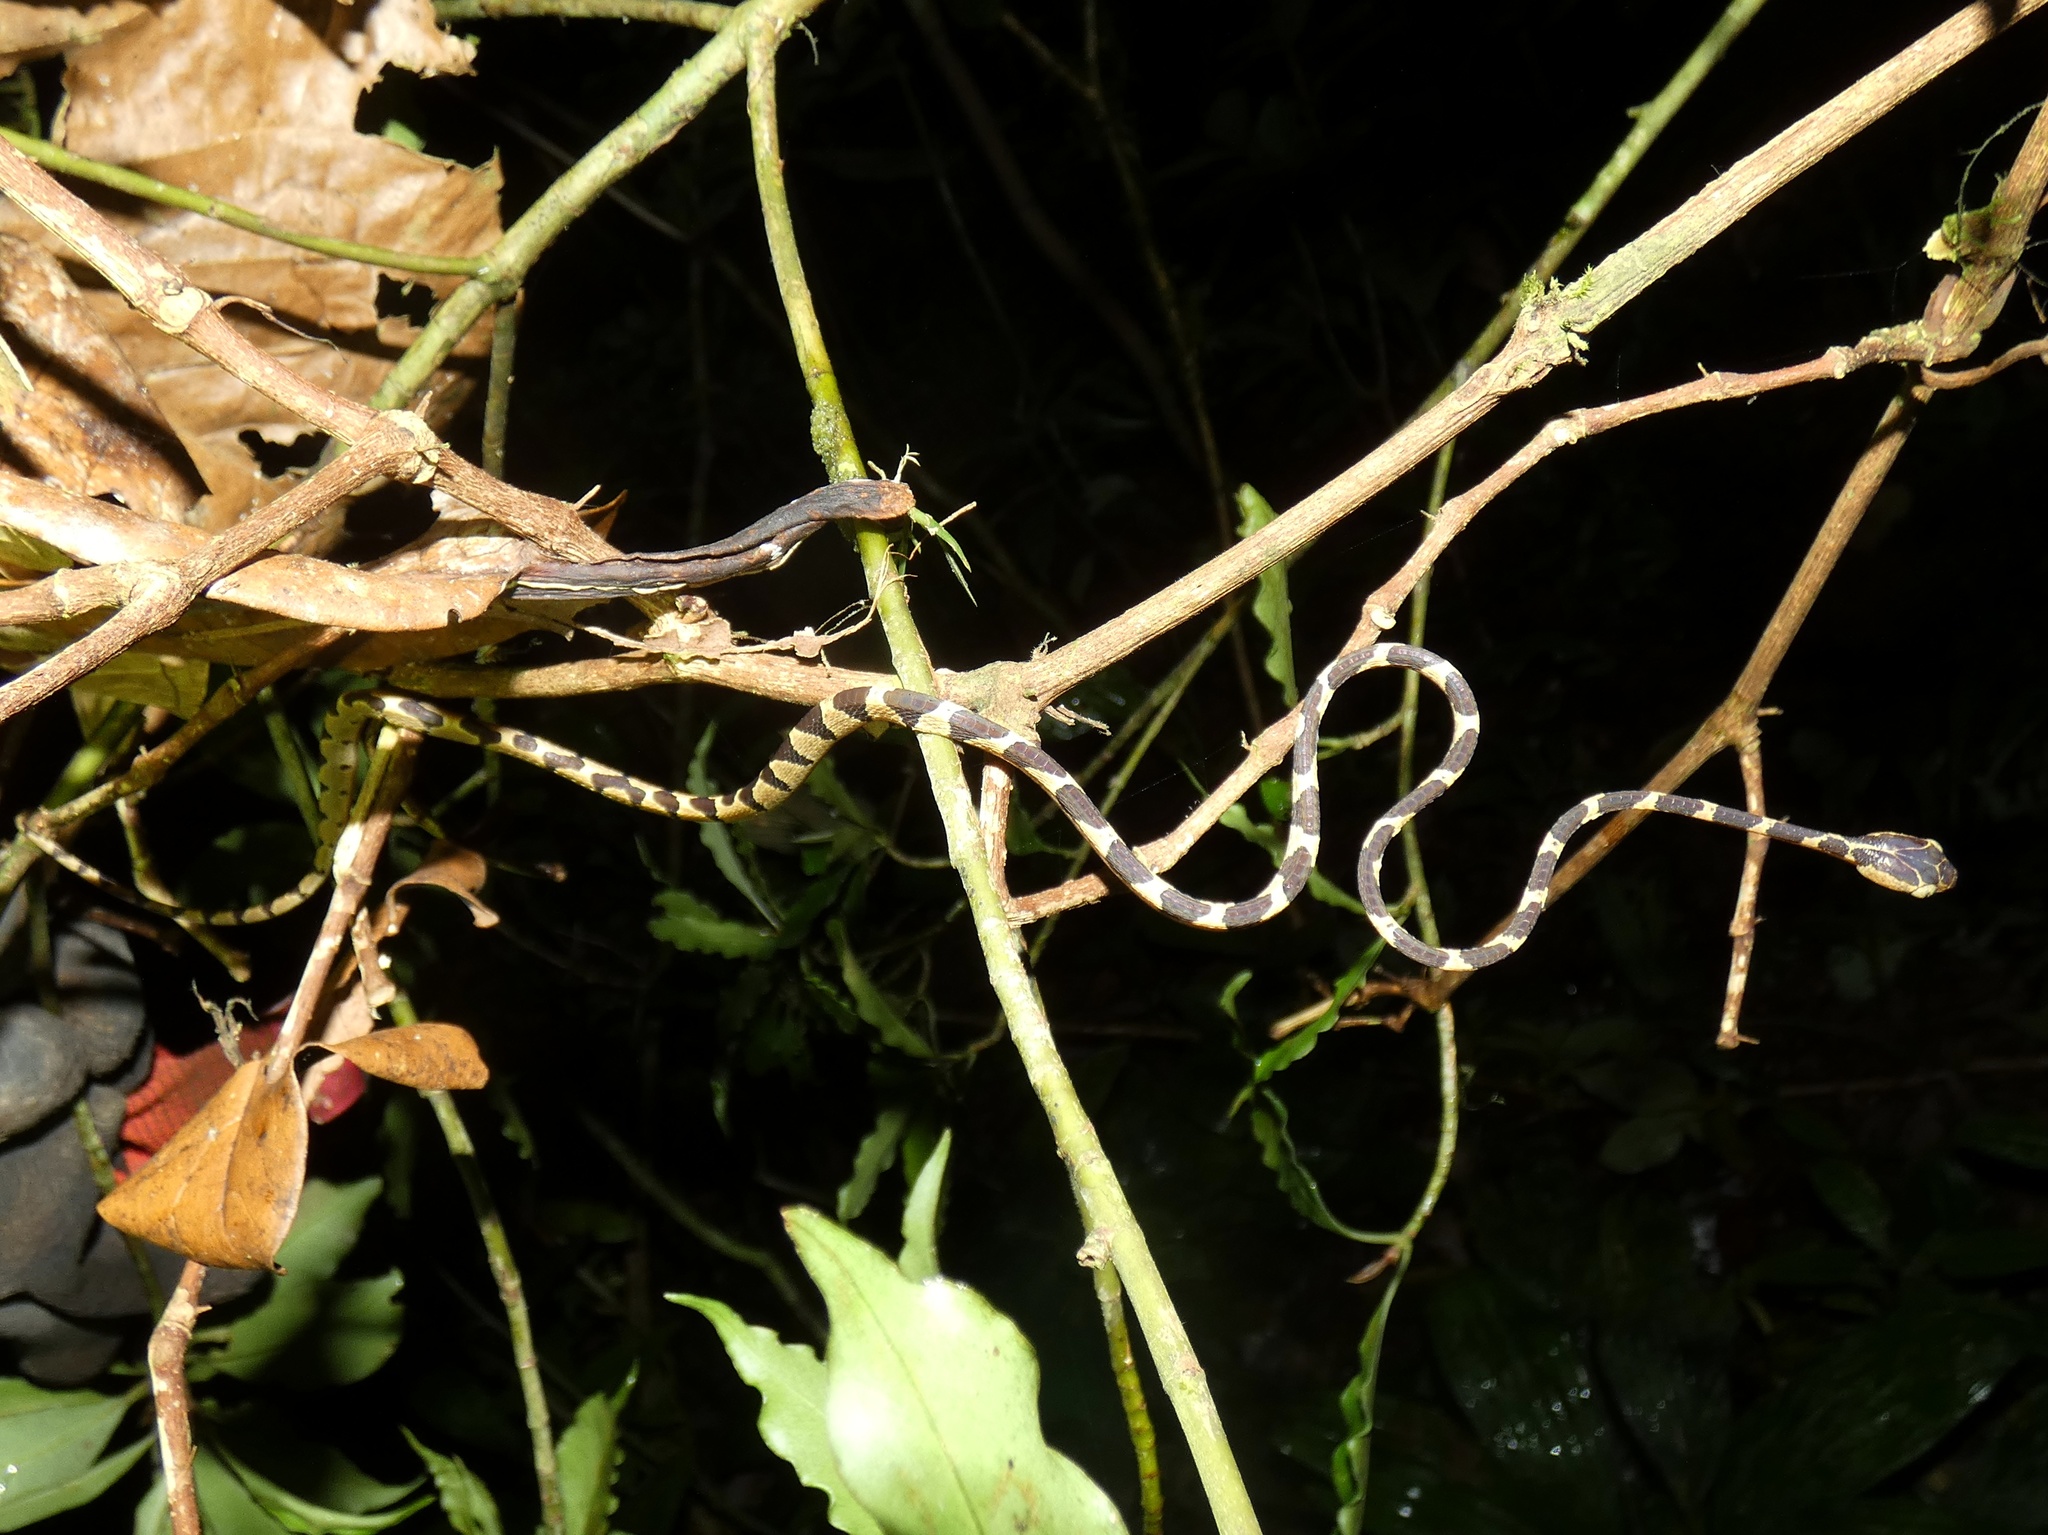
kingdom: Animalia
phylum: Chordata
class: Squamata
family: Colubridae
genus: Imantodes
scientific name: Imantodes cenchoa
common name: Blunthead tree snake
